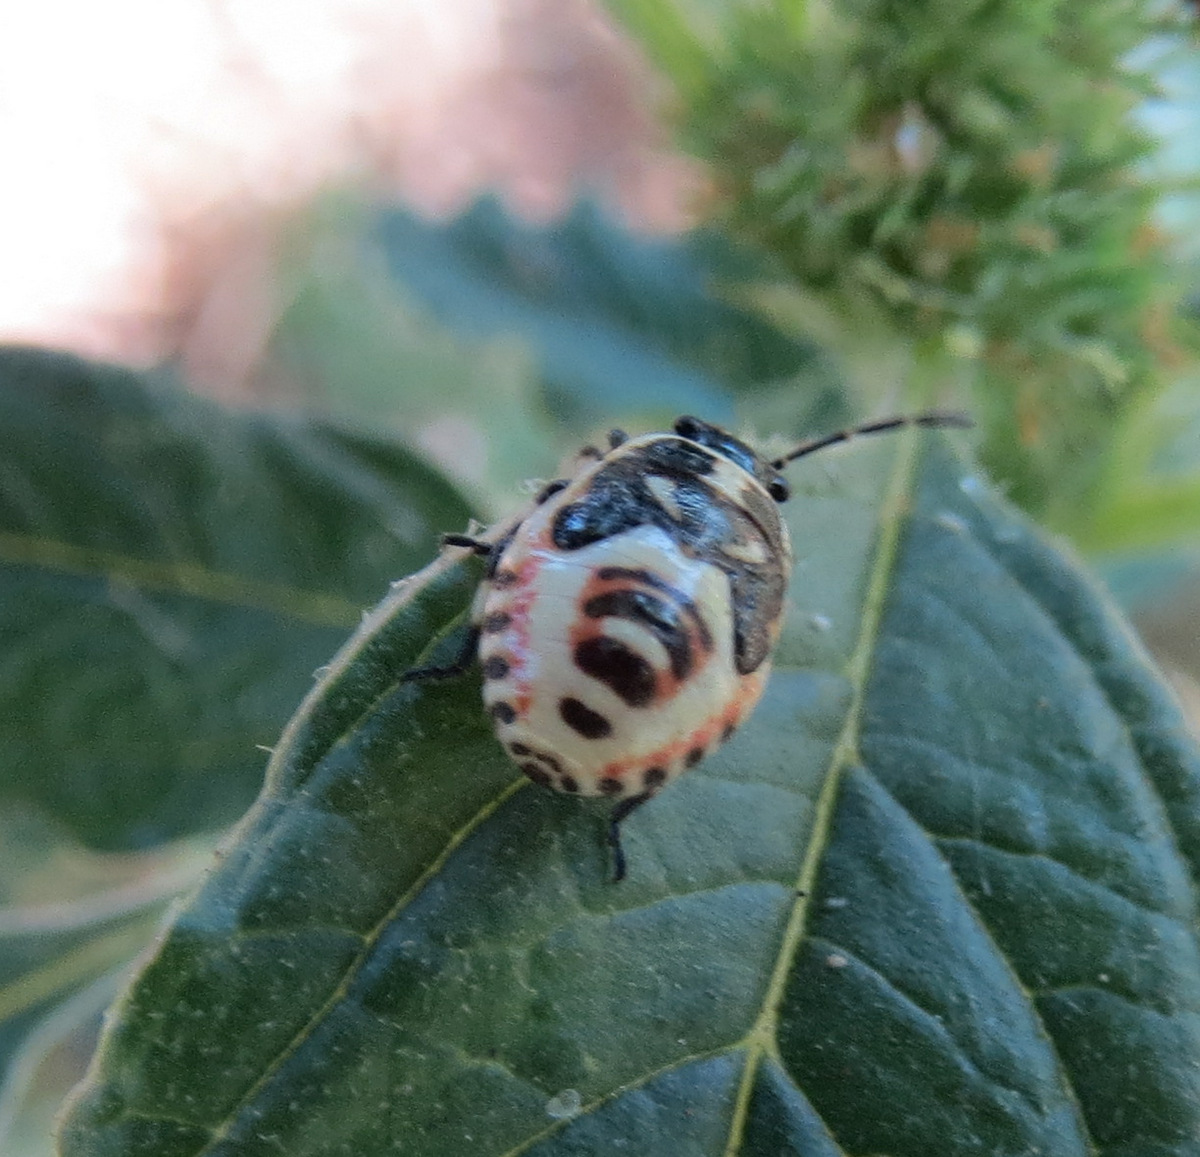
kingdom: Animalia
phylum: Arthropoda
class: Insecta
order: Hemiptera
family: Pentatomidae
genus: Eurydema
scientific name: Eurydema oleracea
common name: Cabbage bug
